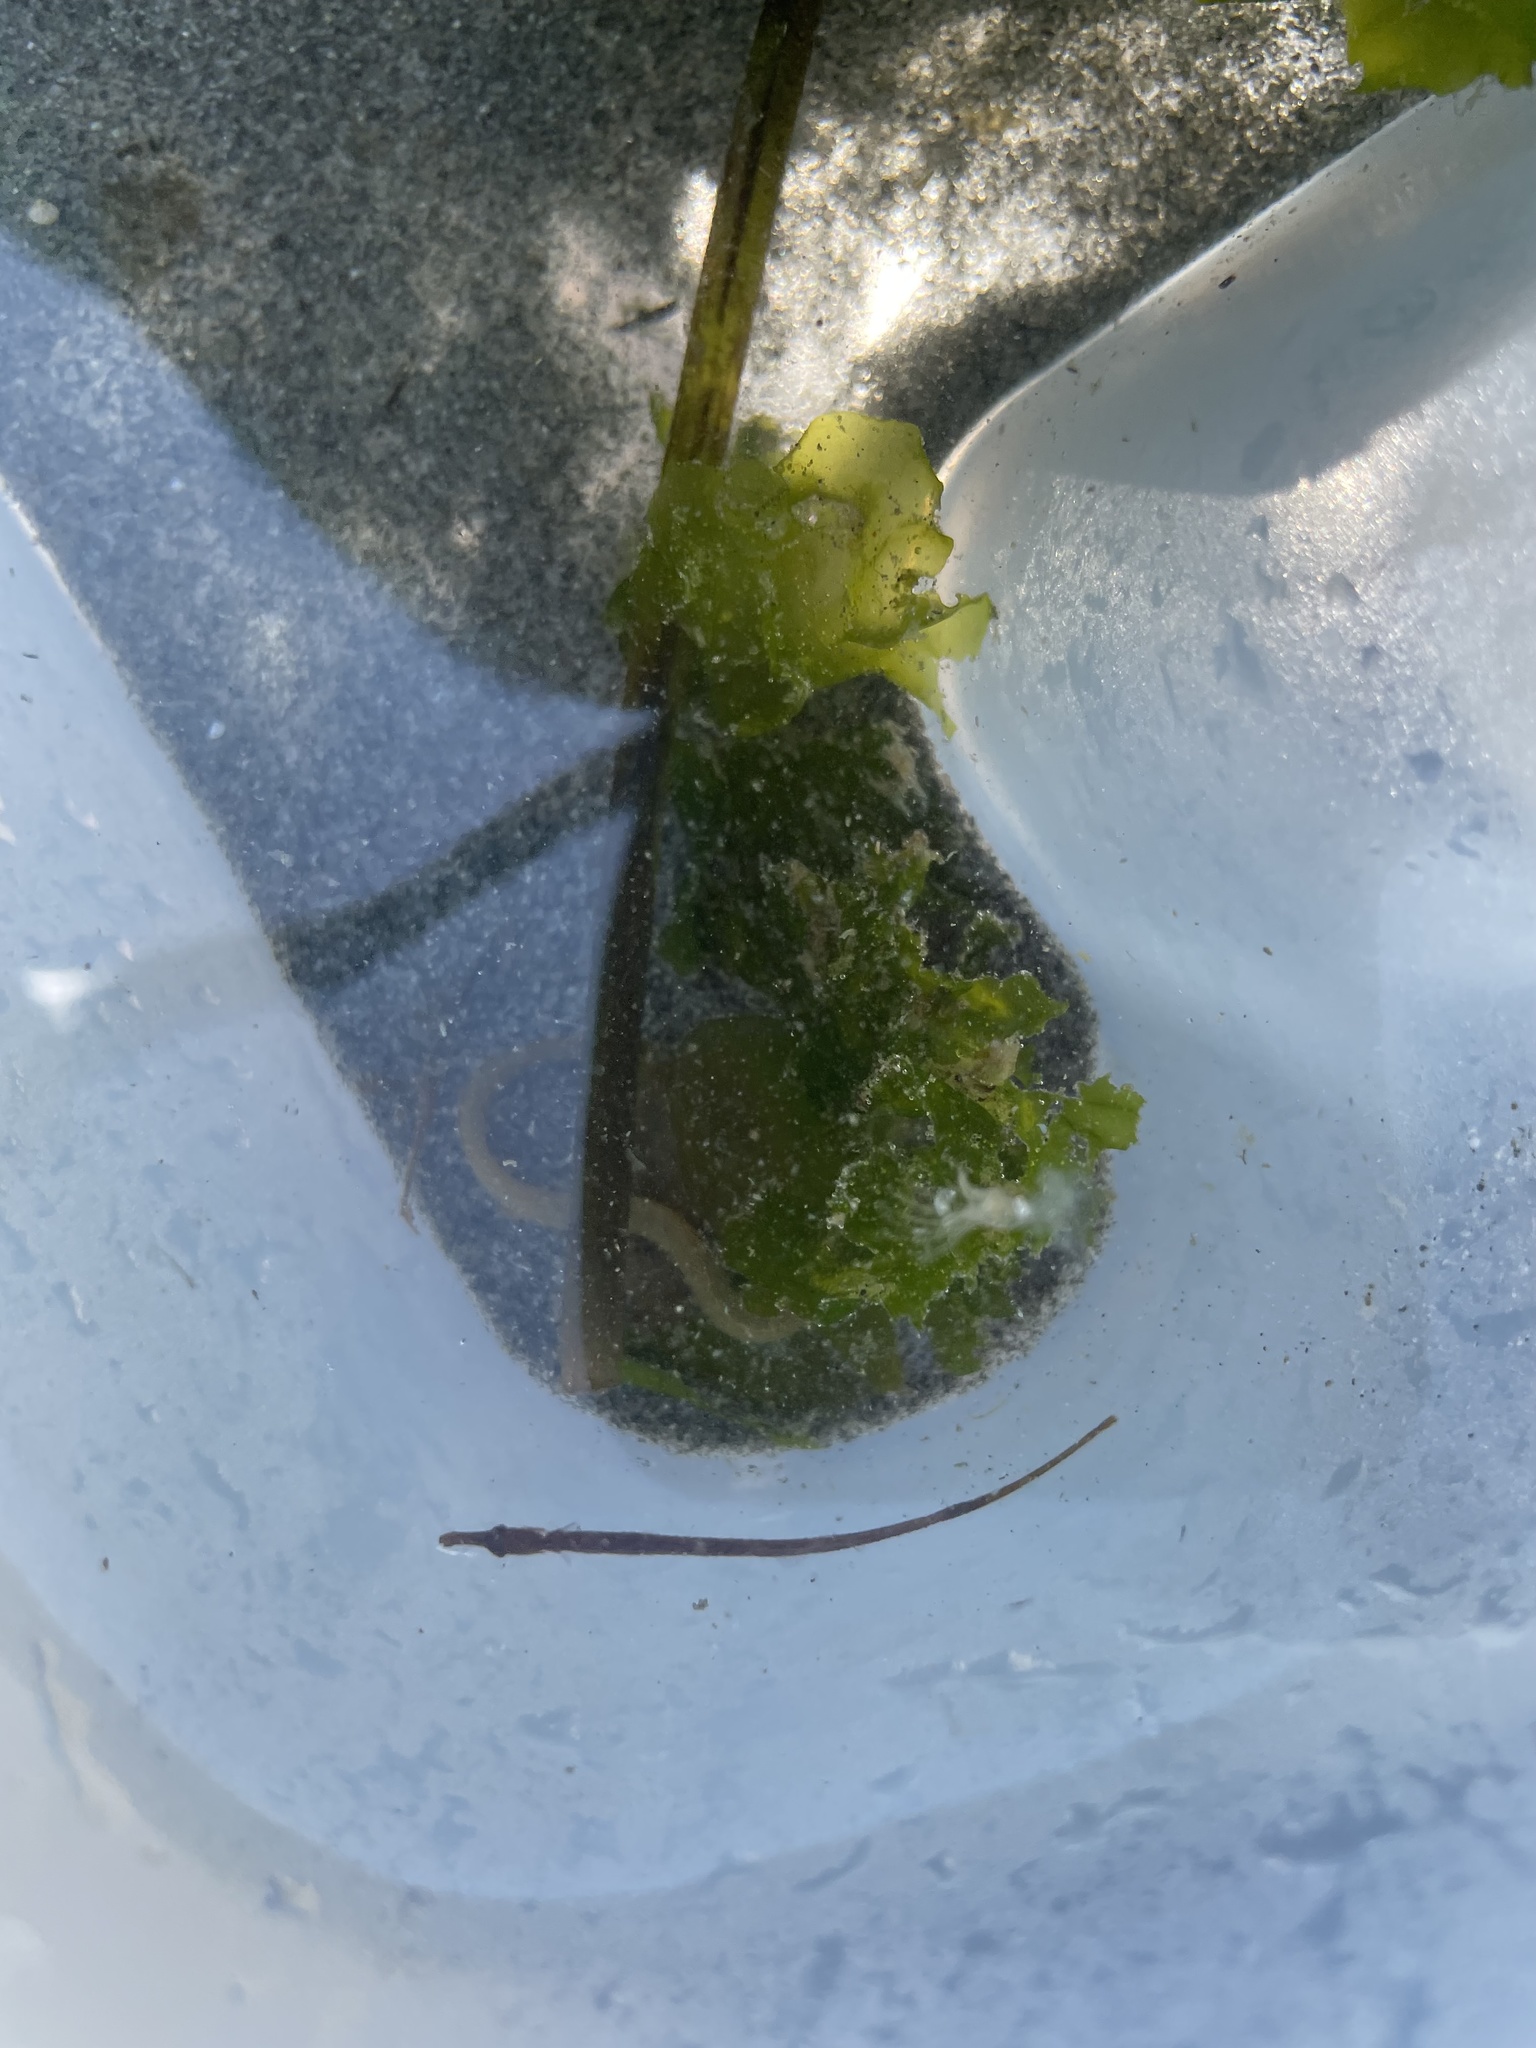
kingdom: Animalia
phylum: Chordata
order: Syngnathiformes
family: Syngnathidae
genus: Syngnathus
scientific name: Syngnathus californiensis
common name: Great pipefish
